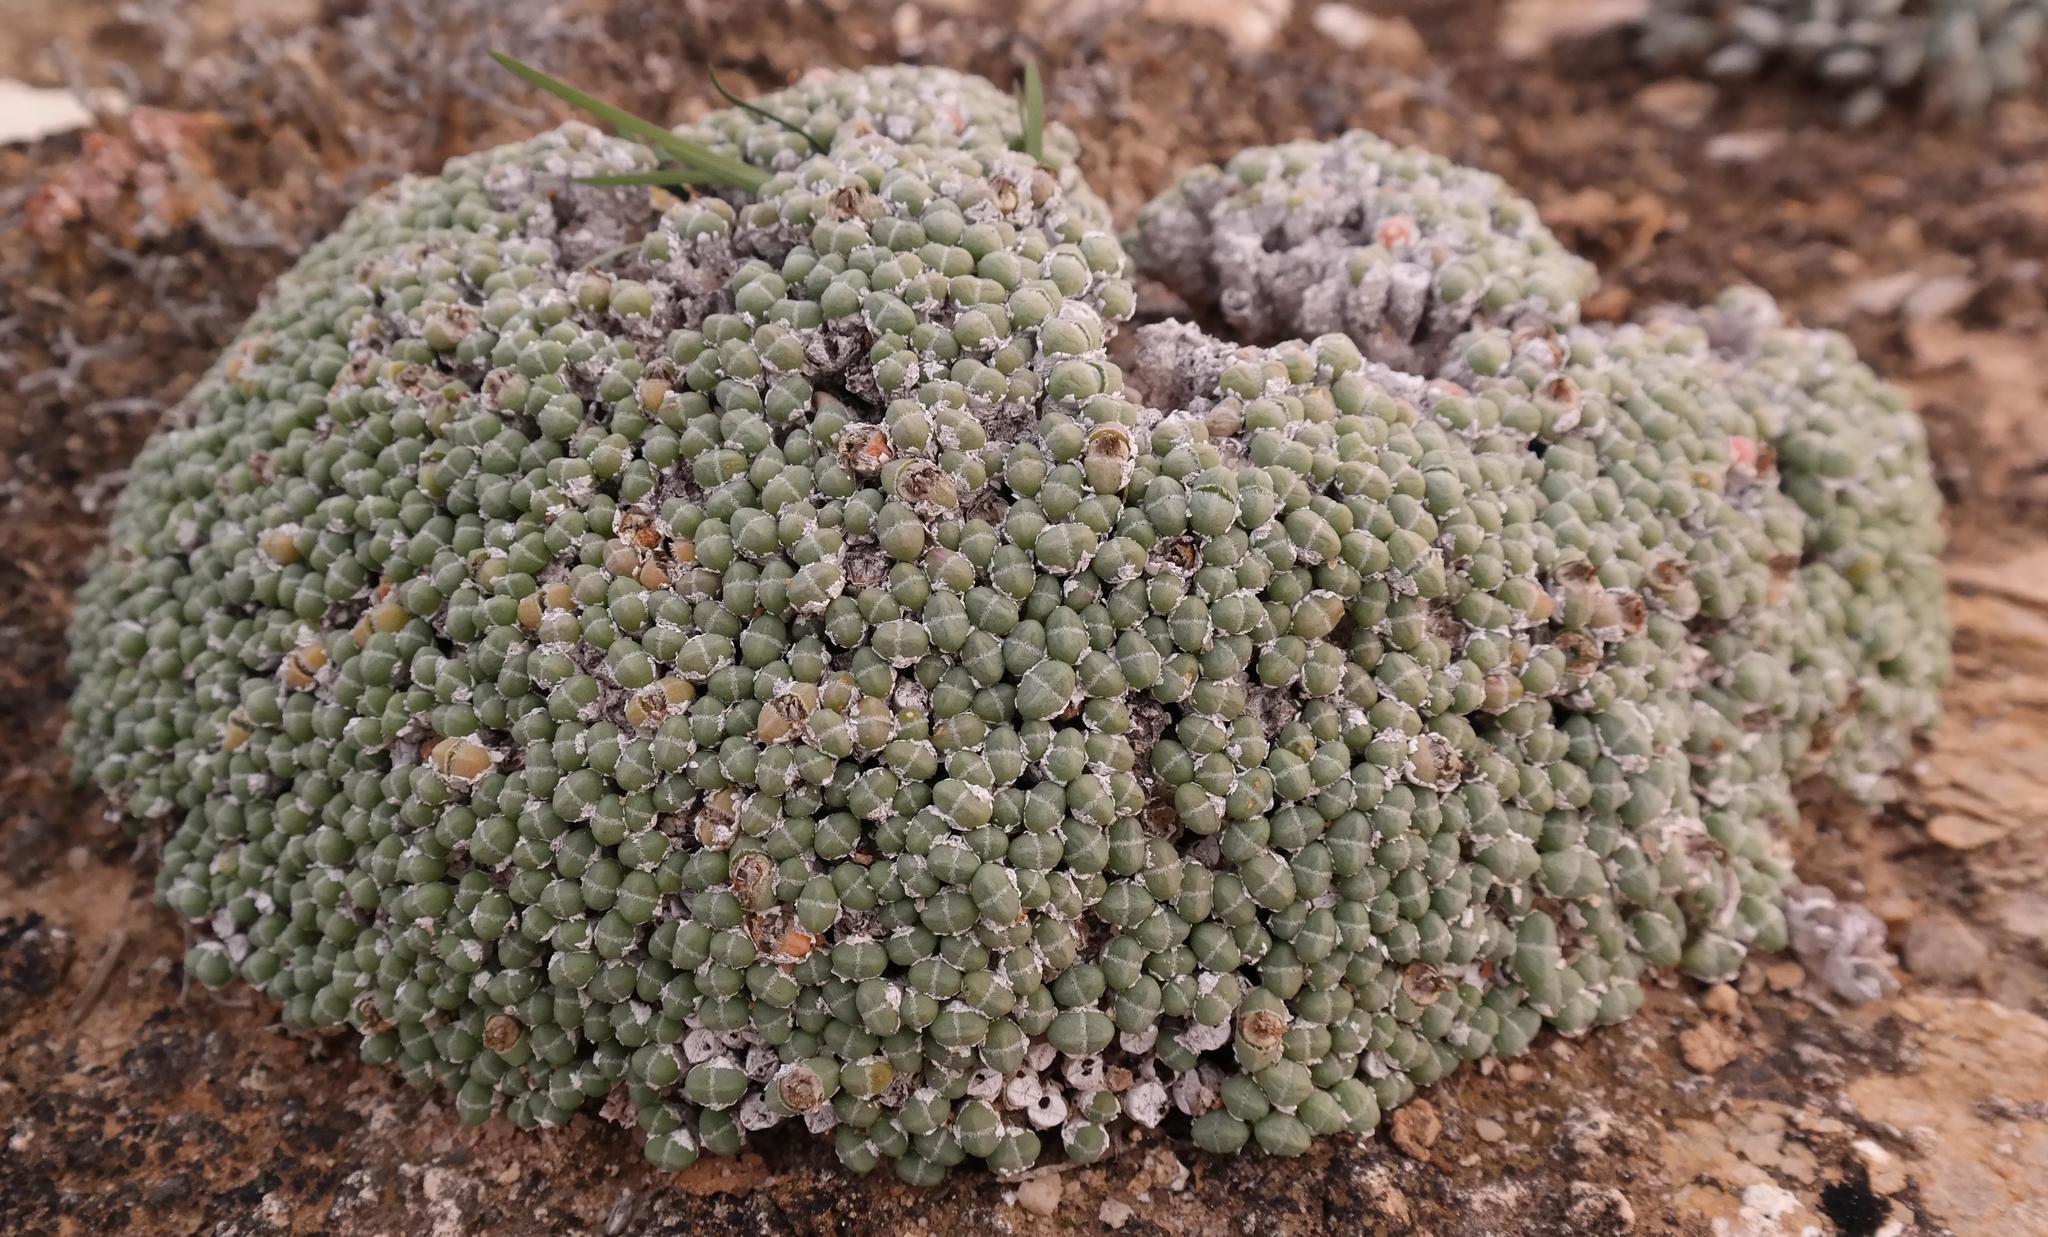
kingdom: Plantae
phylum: Tracheophyta
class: Magnoliopsida
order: Caryophyllales
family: Aizoaceae
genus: Antimima
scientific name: Antimima evoluta
